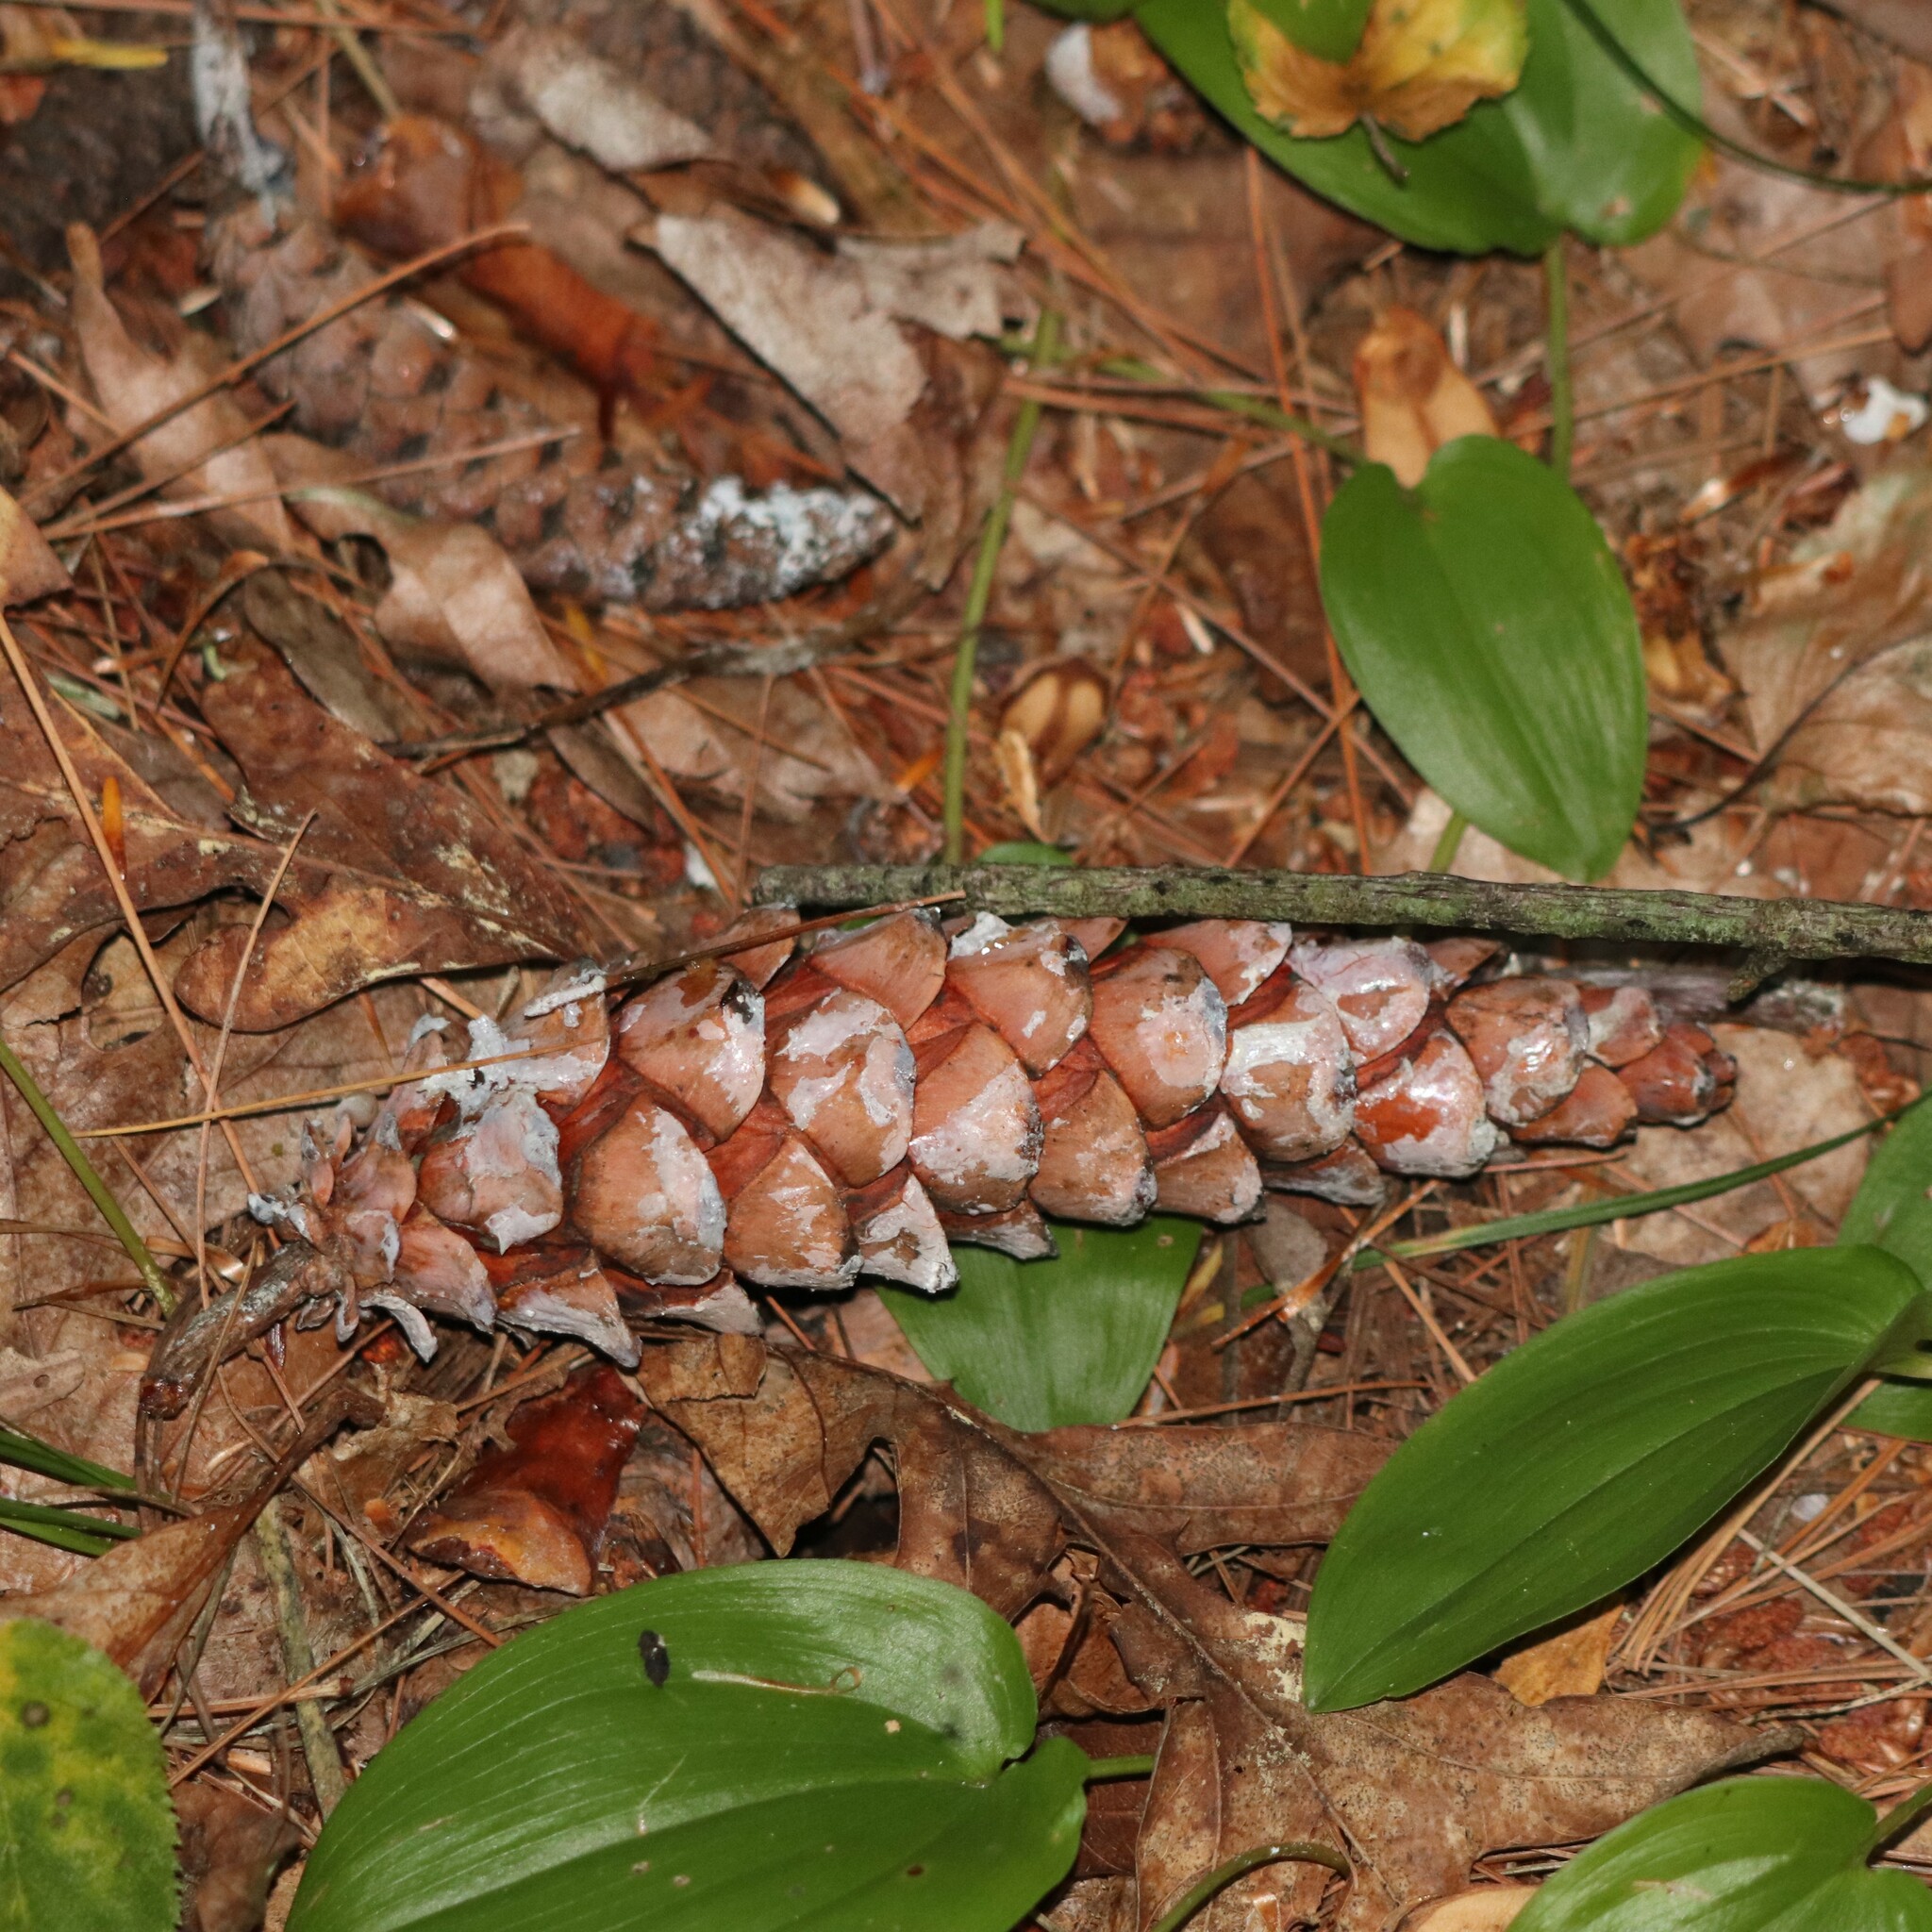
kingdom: Plantae
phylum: Tracheophyta
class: Pinopsida
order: Pinales
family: Pinaceae
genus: Pinus
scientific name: Pinus strobus
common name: Weymouth pine
